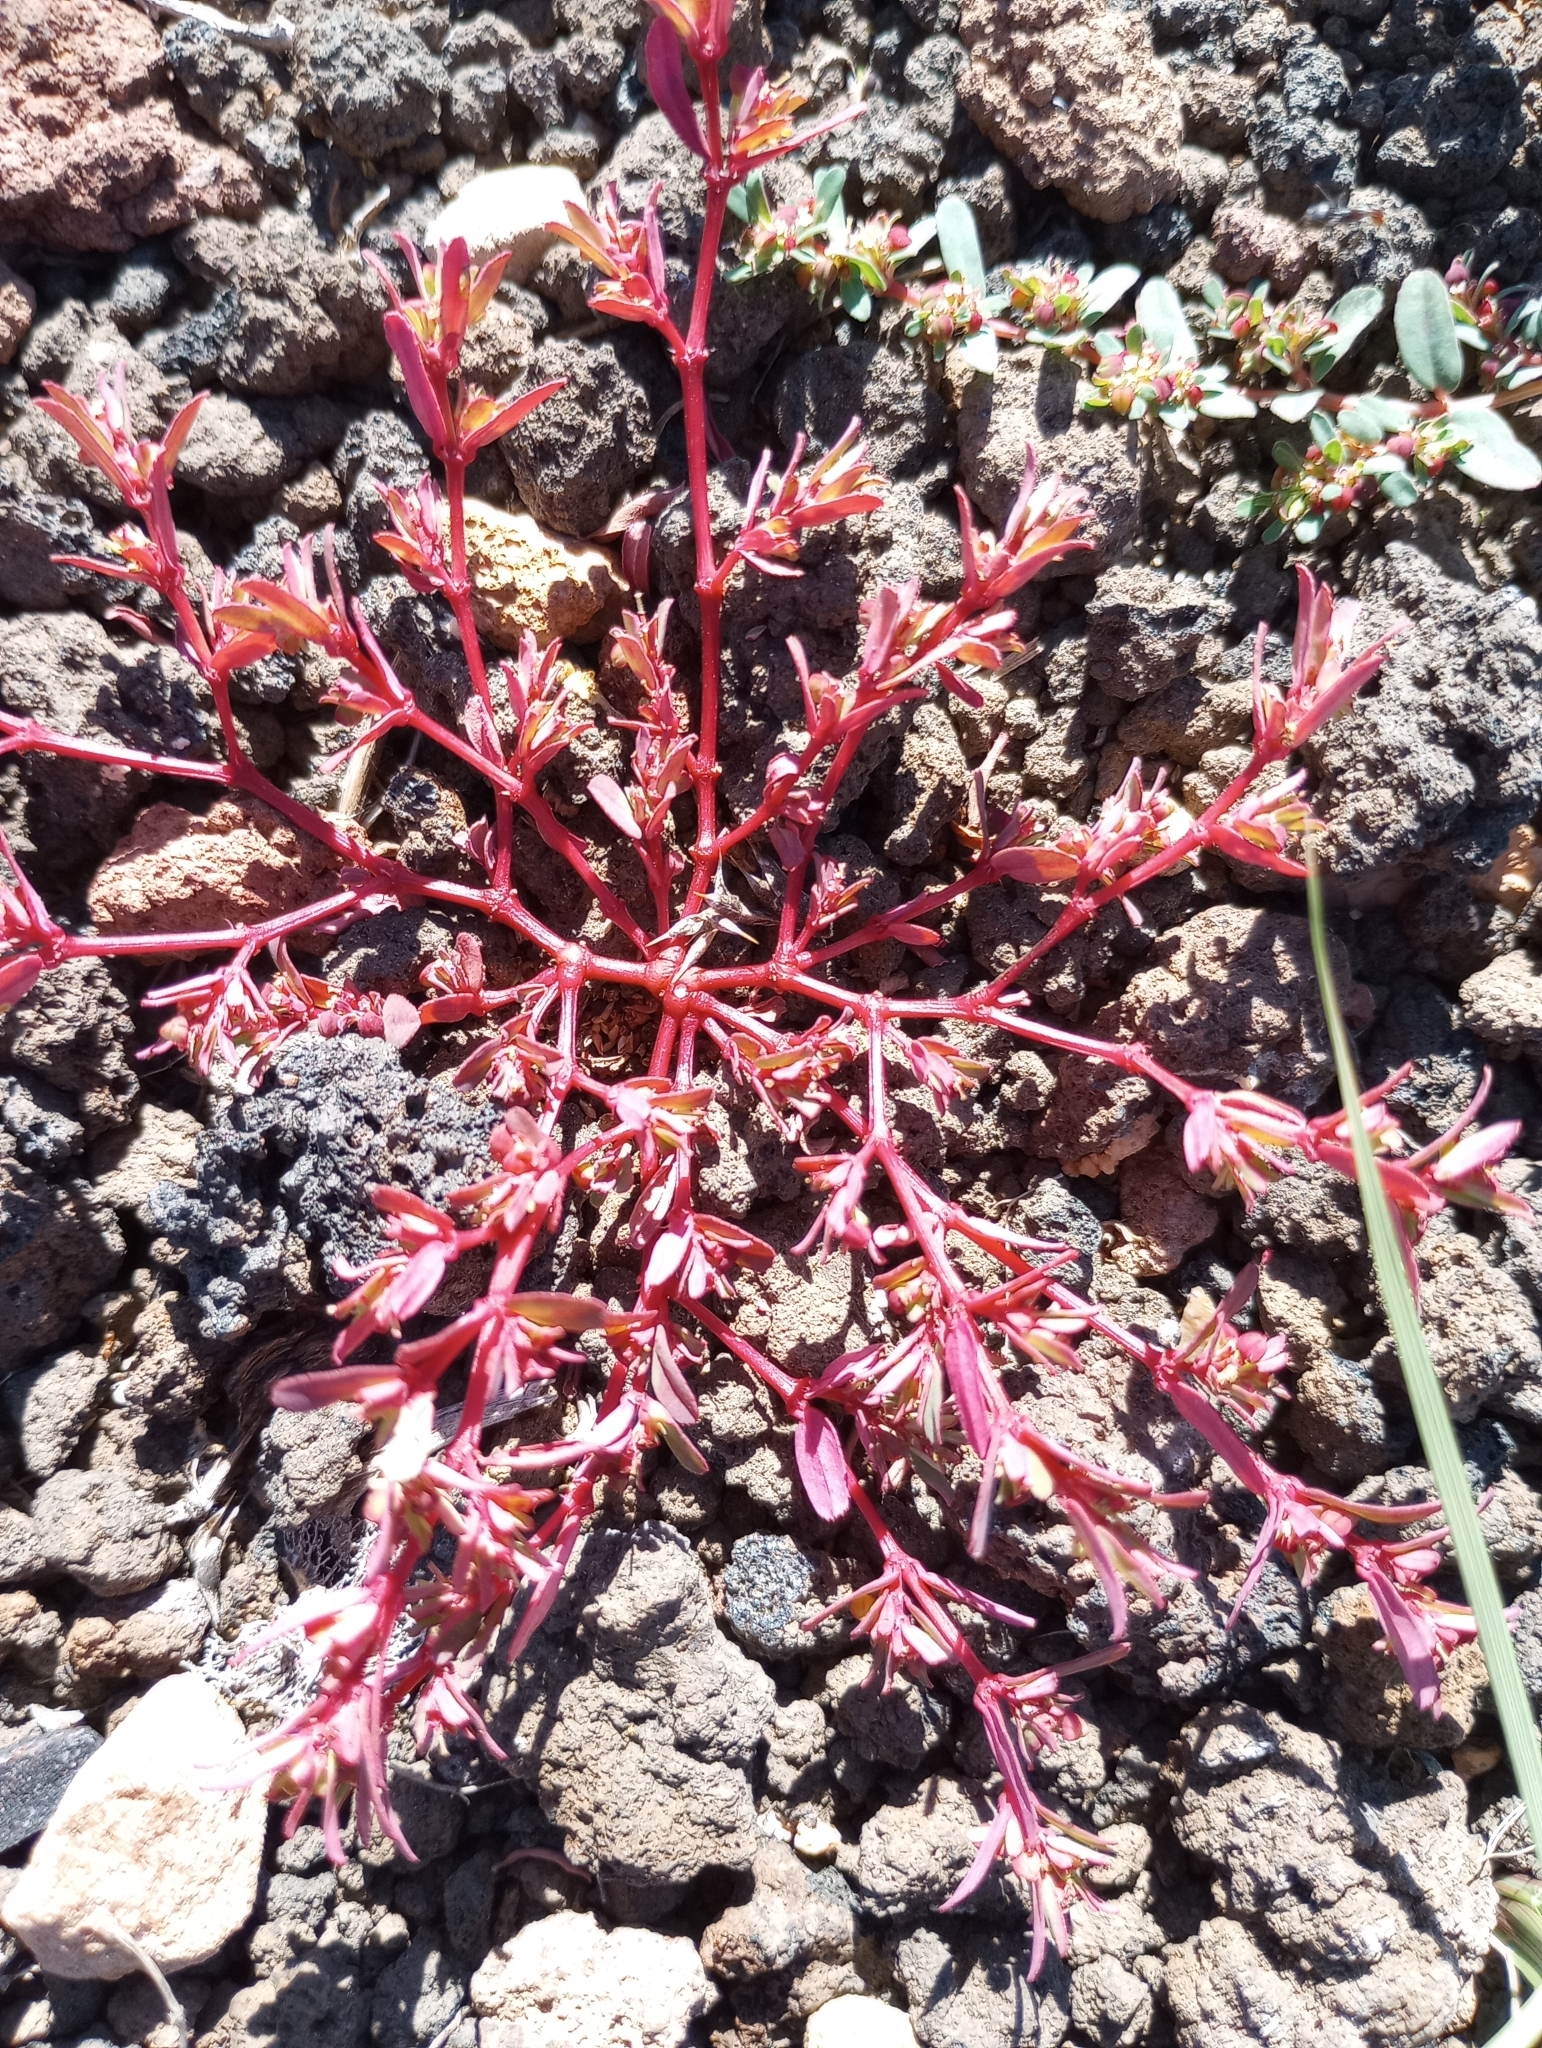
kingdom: Plantae
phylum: Tracheophyta
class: Magnoliopsida
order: Malpighiales
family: Euphorbiaceae
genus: Euphorbia
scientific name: Euphorbia serpillifolia
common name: Thyme-leaf spurge
